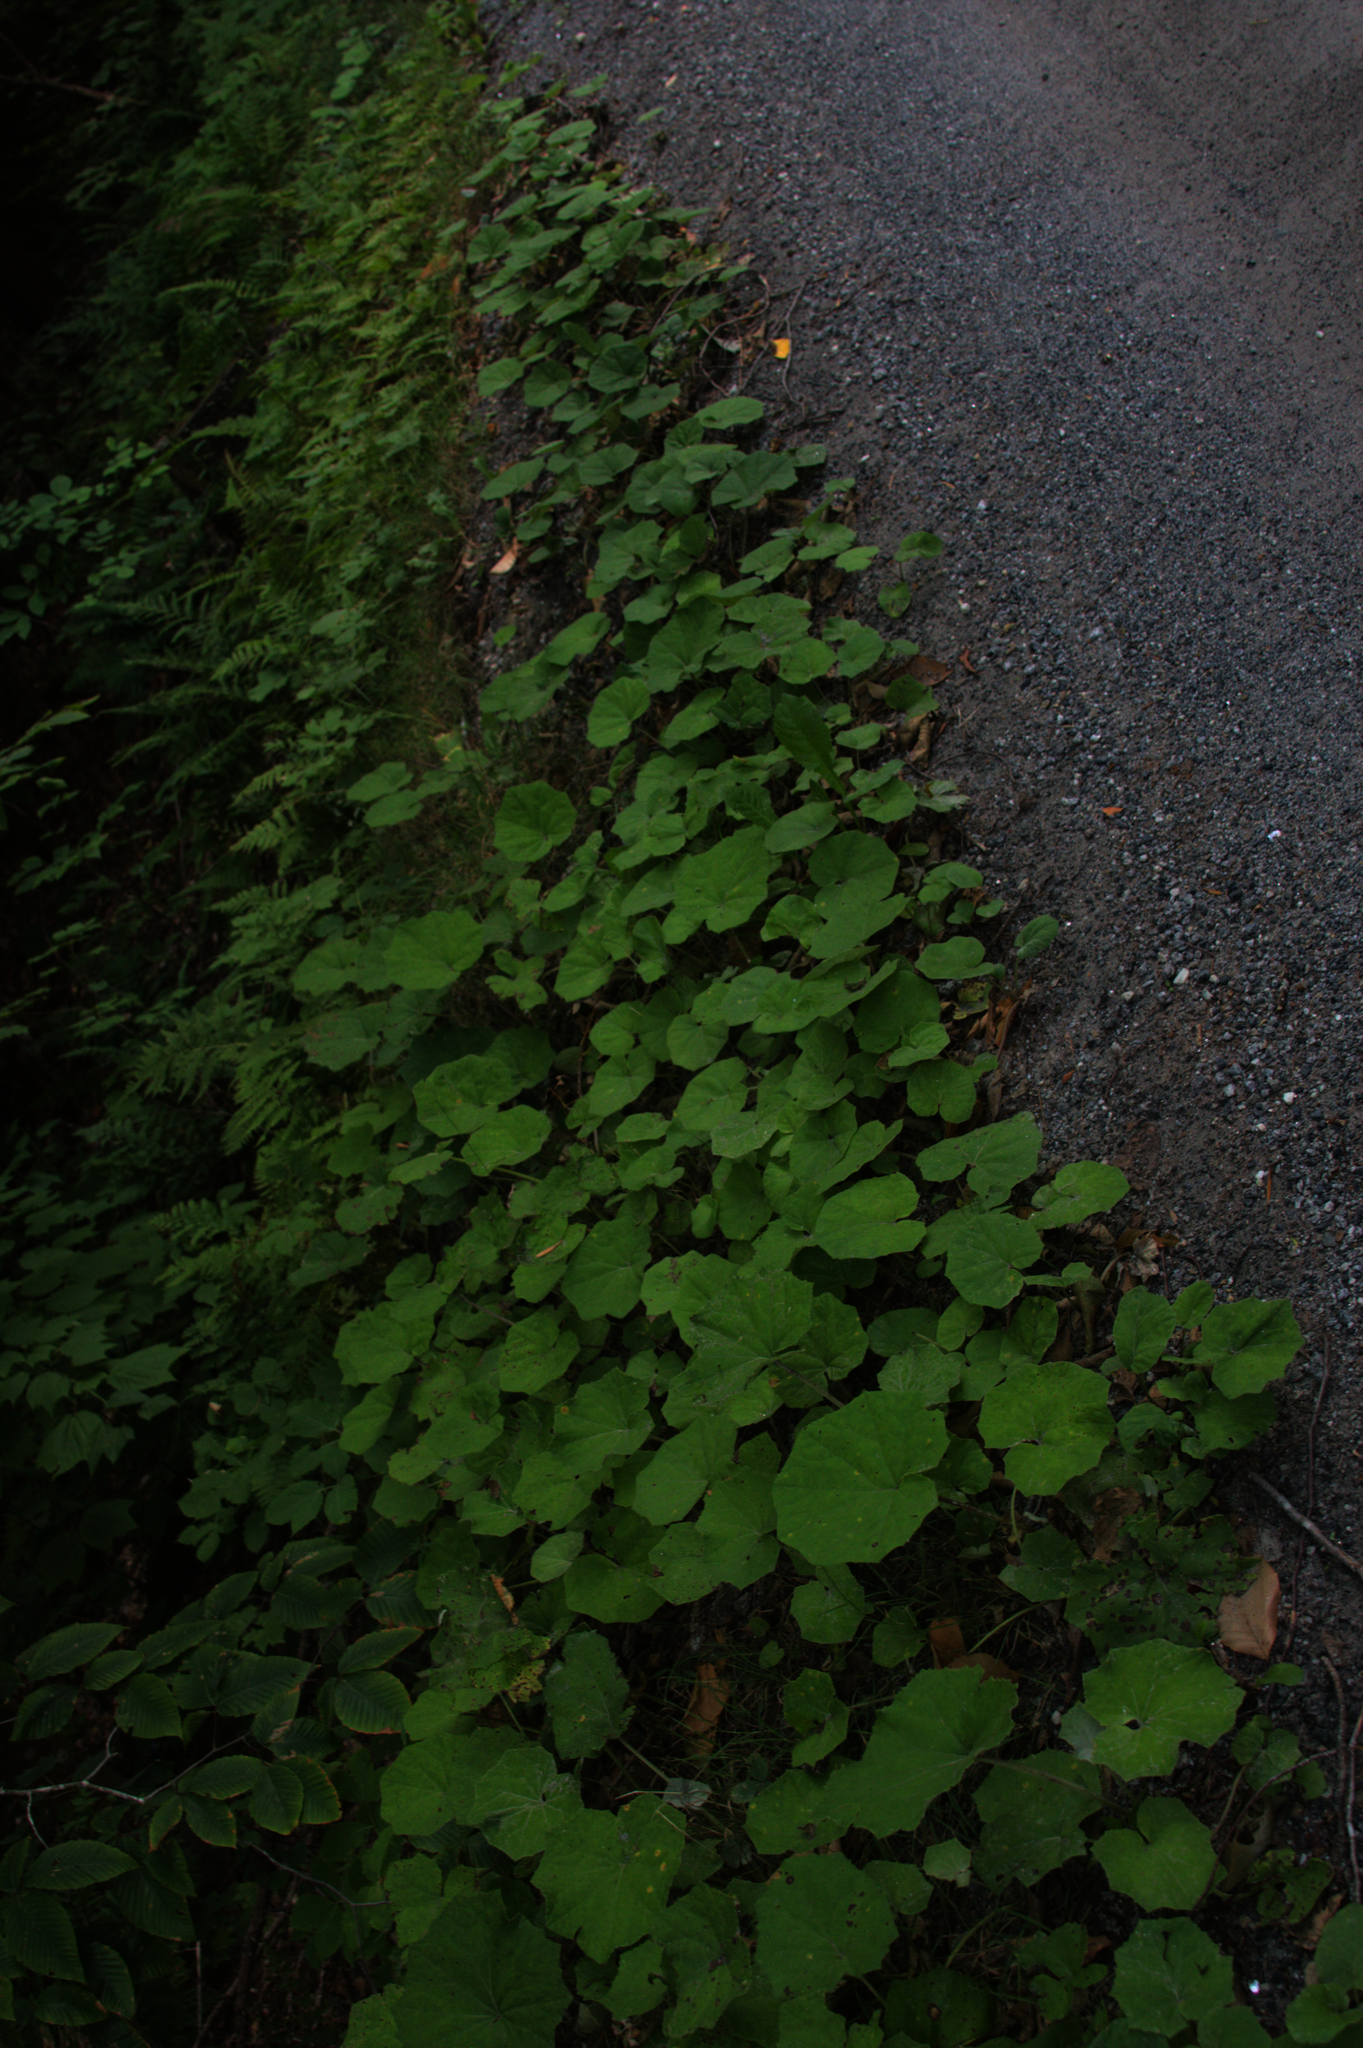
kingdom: Plantae
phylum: Tracheophyta
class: Magnoliopsida
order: Asterales
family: Asteraceae
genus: Tussilago
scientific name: Tussilago farfara
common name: Coltsfoot
